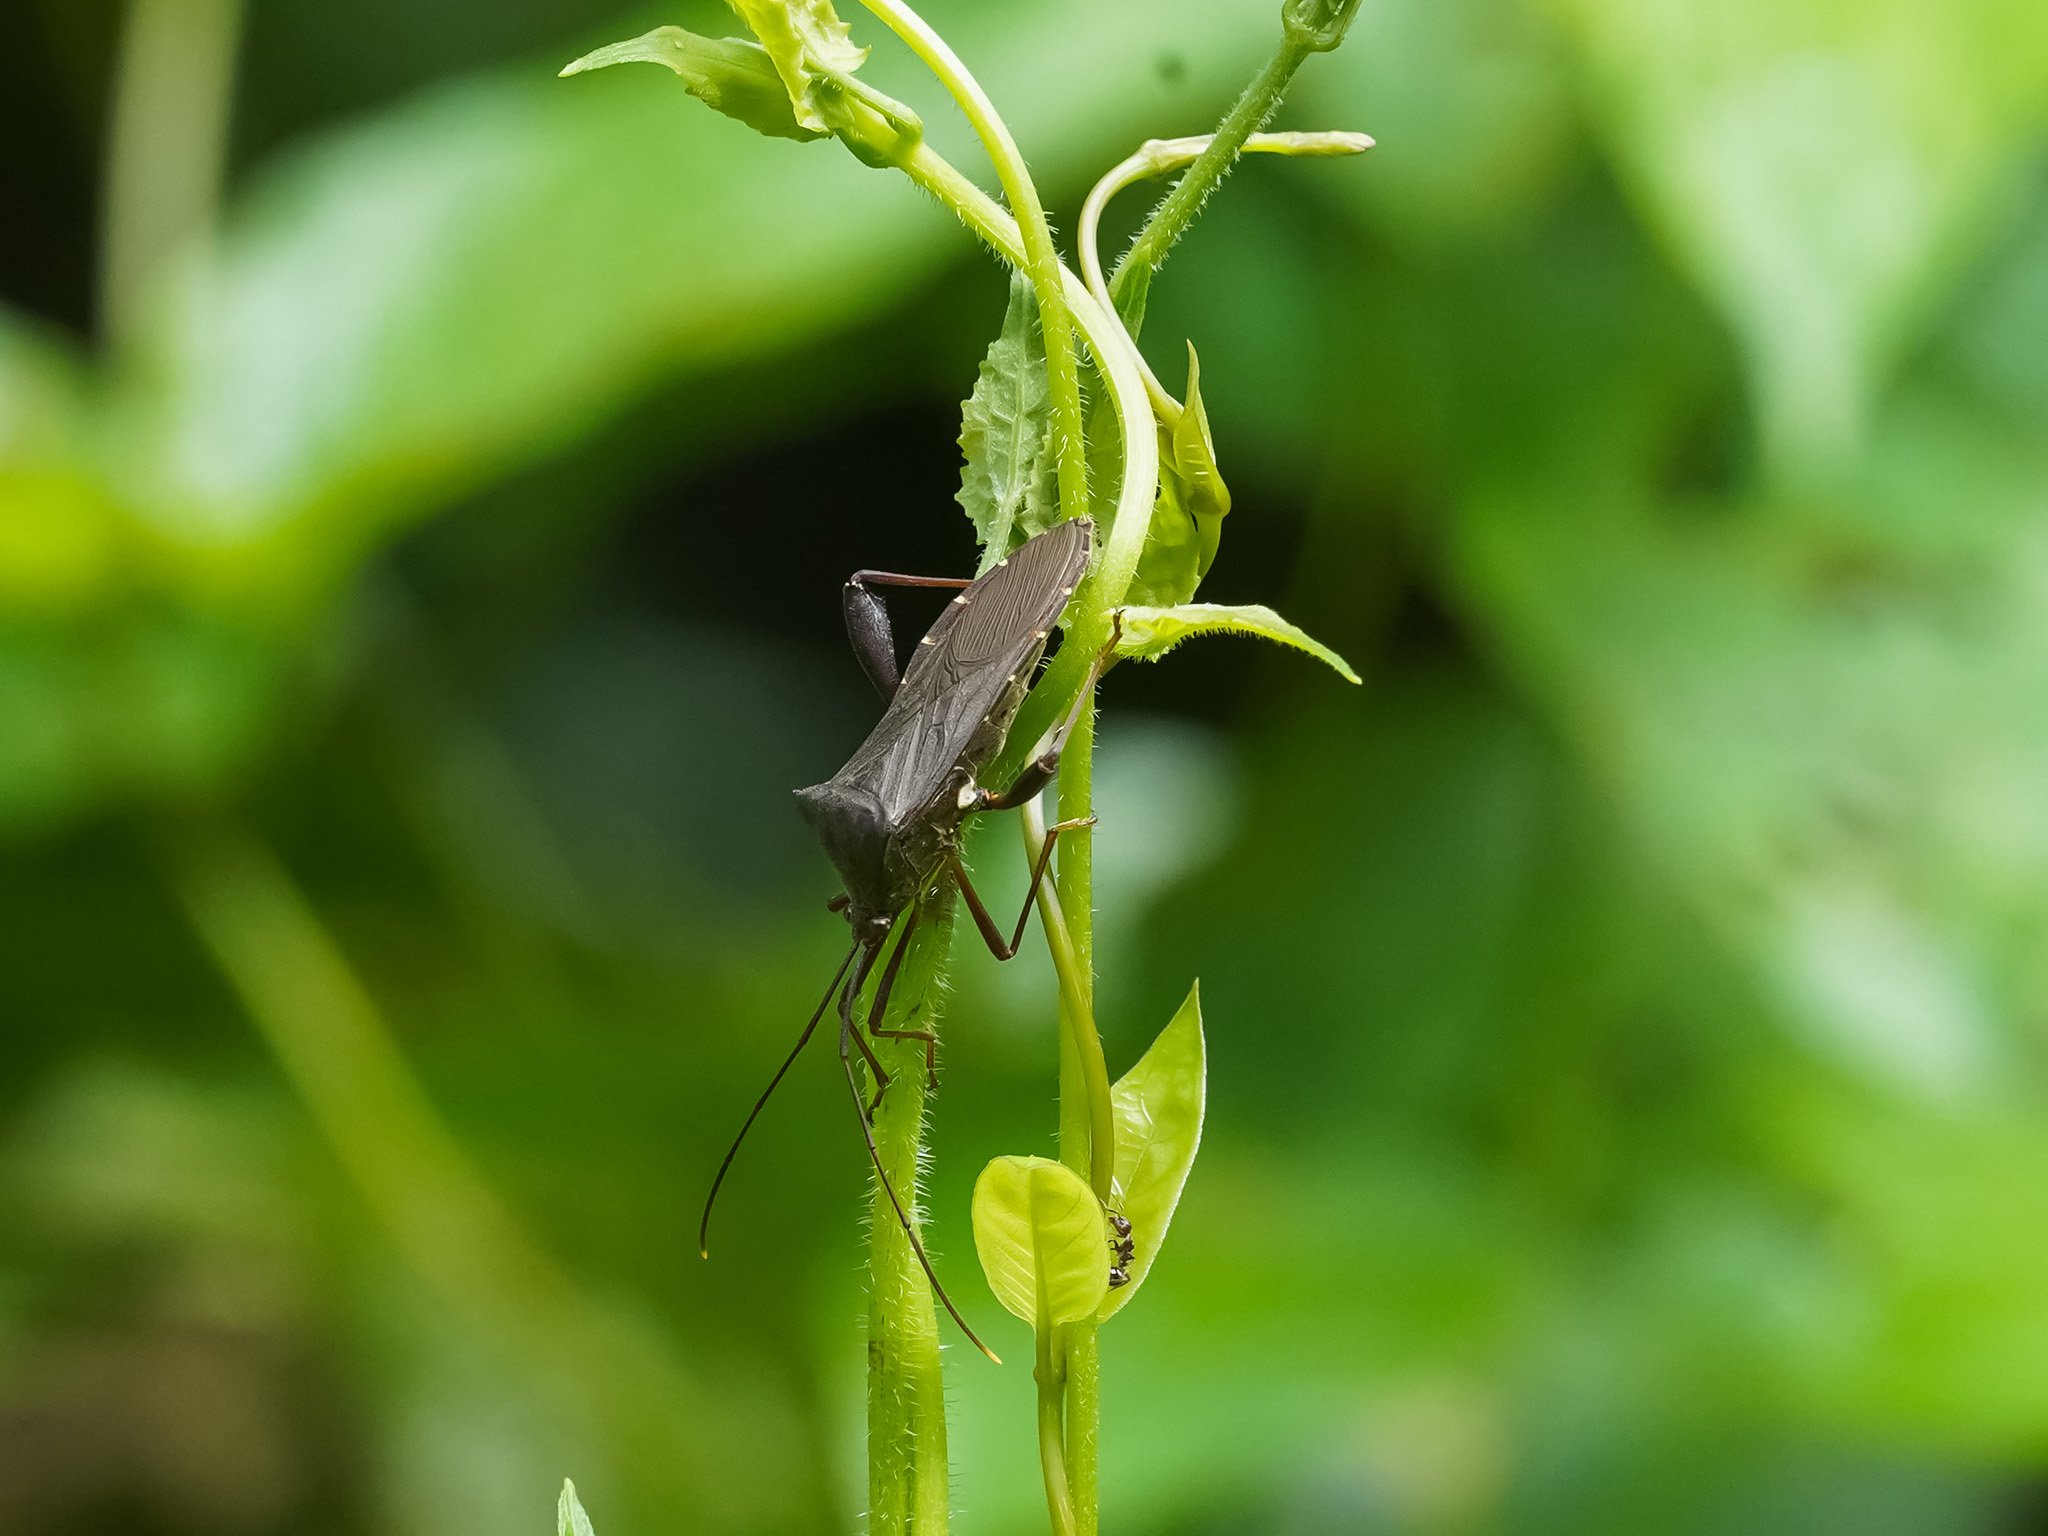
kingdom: Animalia
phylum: Arthropoda
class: Insecta
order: Hemiptera
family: Coreidae
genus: Mictis
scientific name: Mictis longicornis
